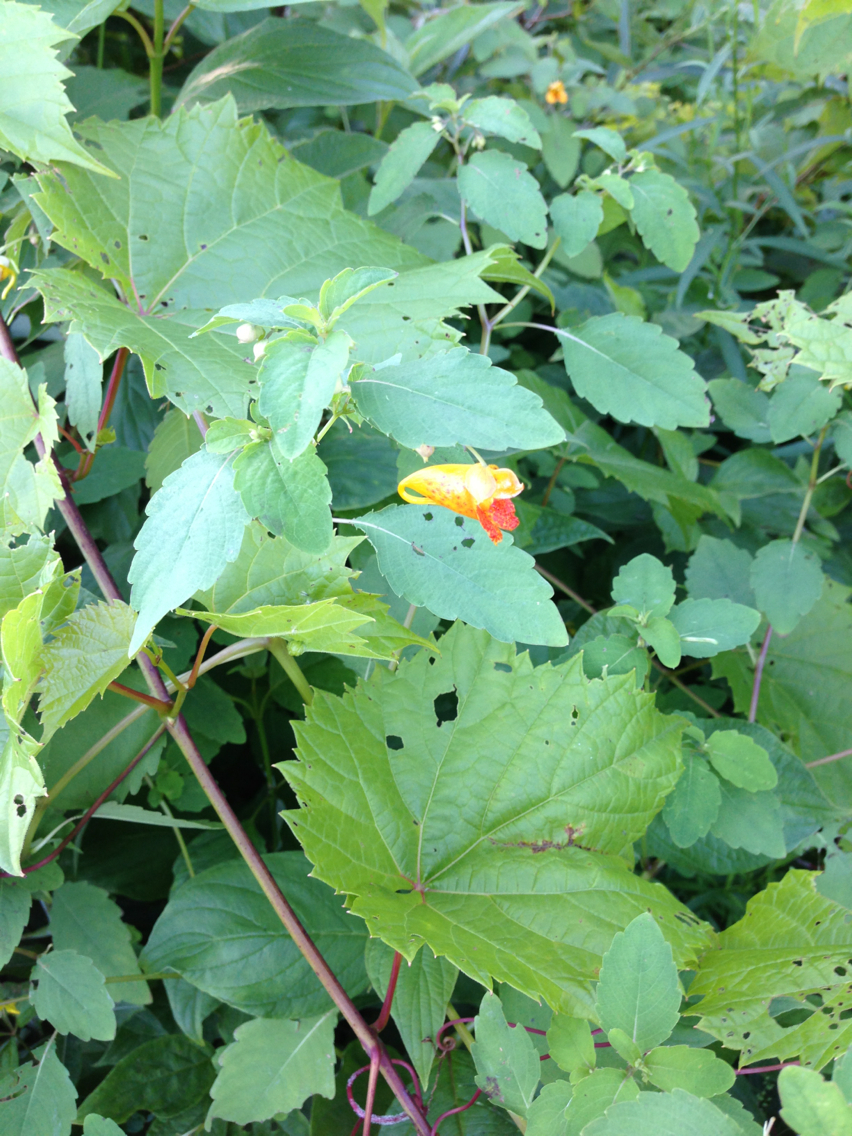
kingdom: Plantae
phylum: Tracheophyta
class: Magnoliopsida
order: Ericales
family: Balsaminaceae
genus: Impatiens
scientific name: Impatiens capensis
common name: Orange balsam
